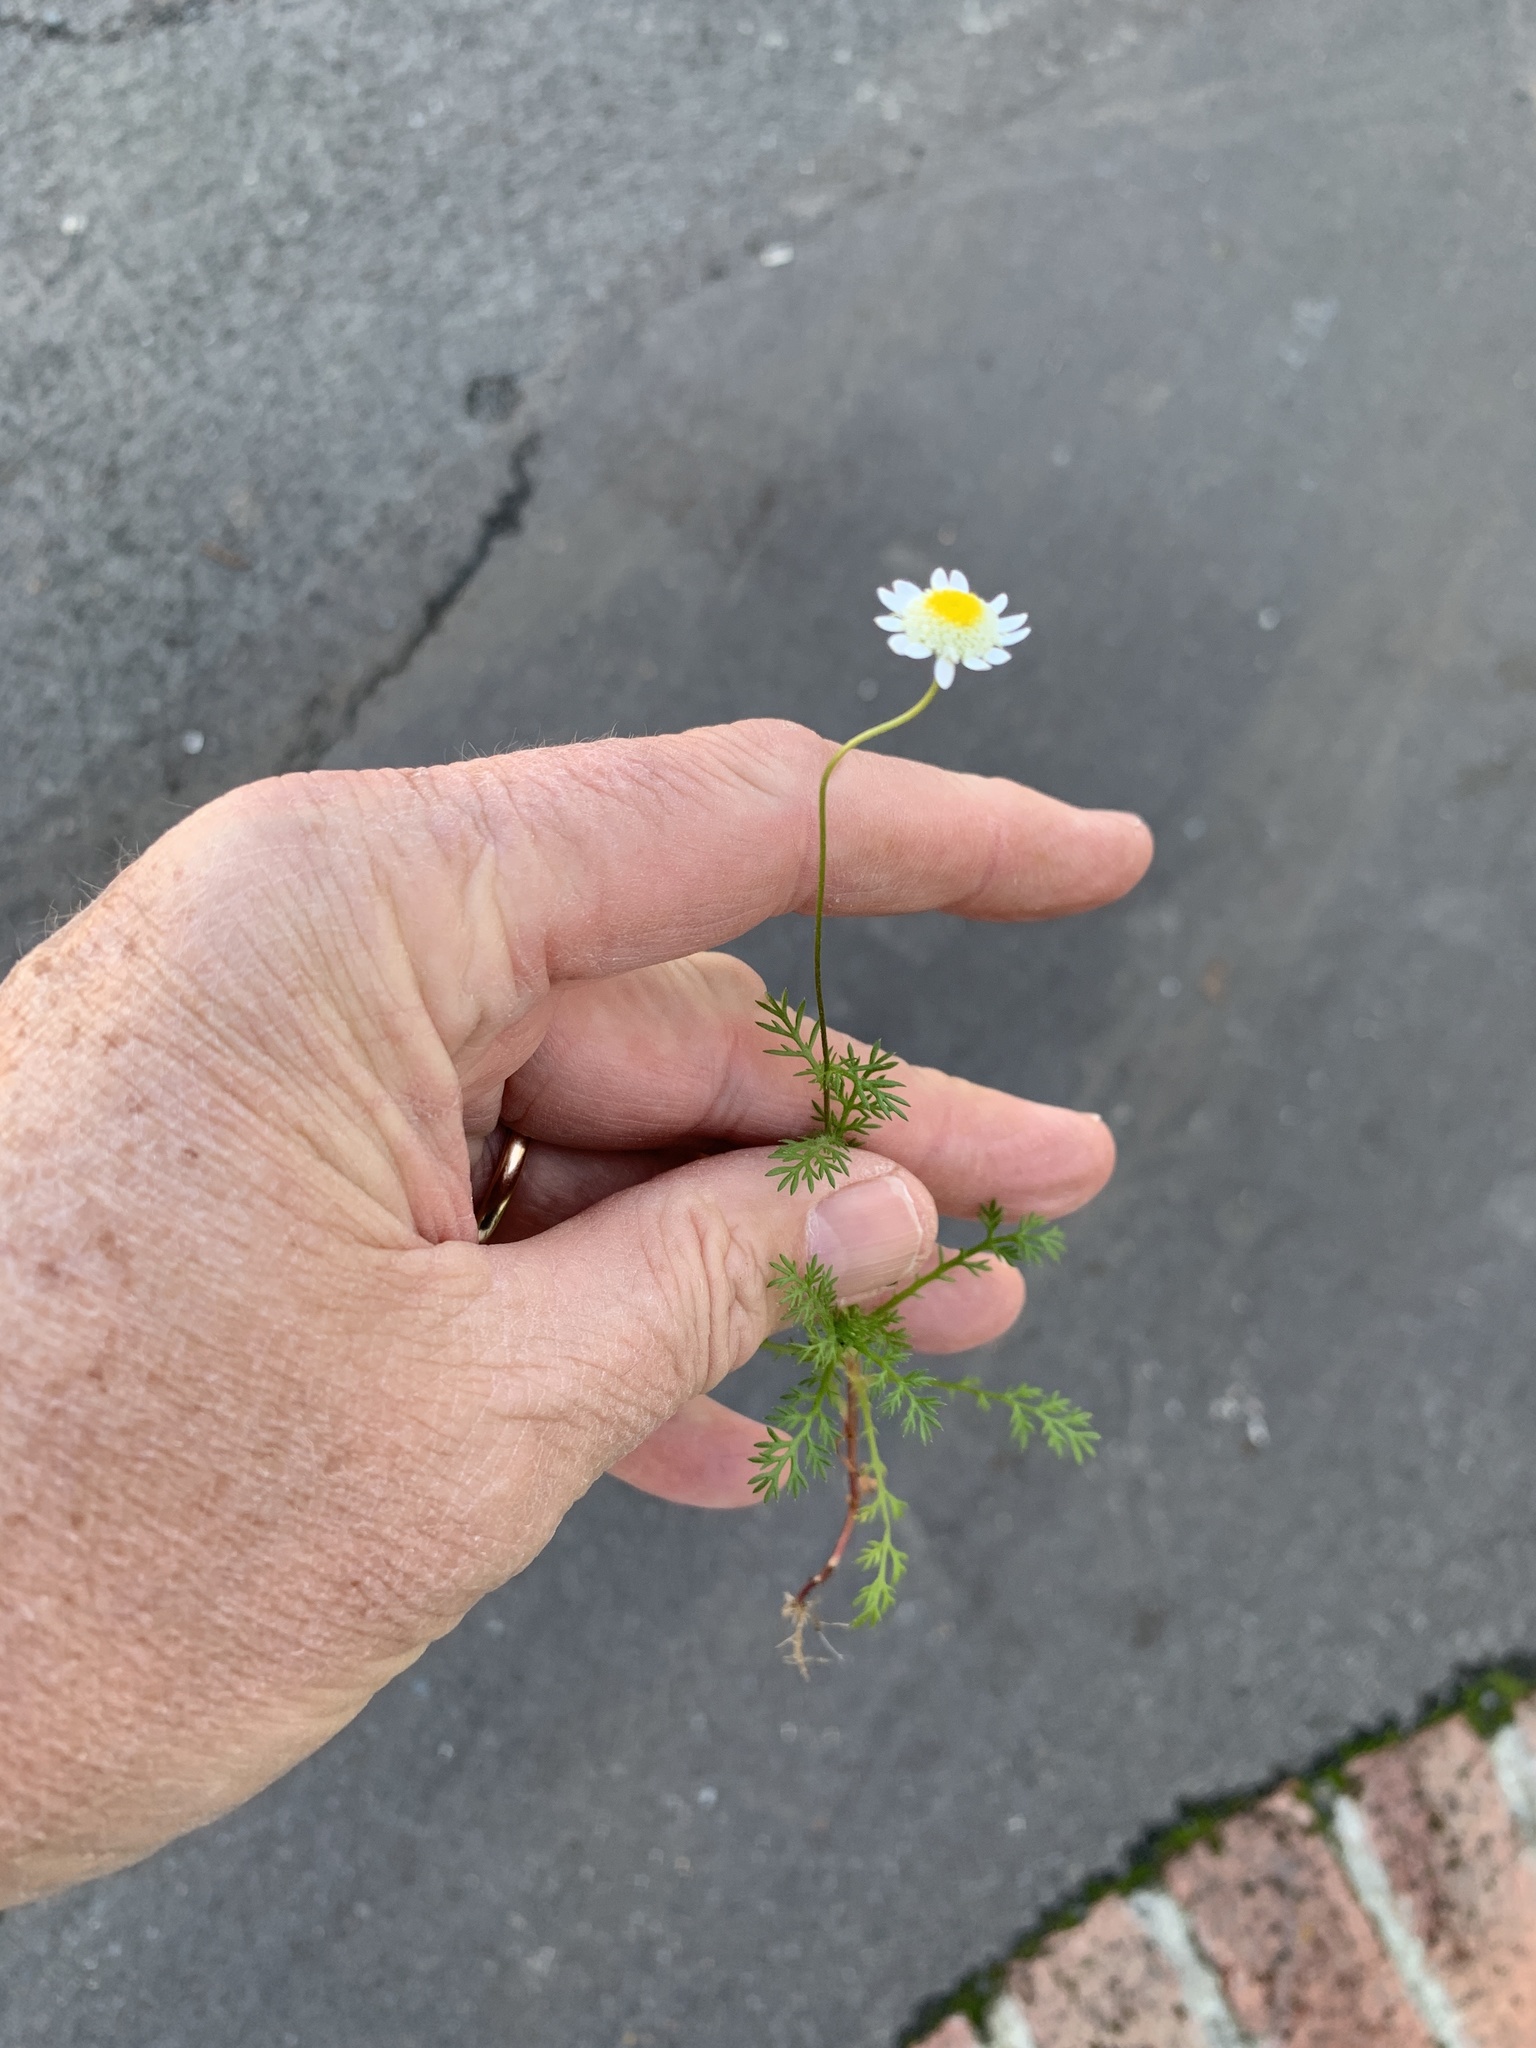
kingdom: Plantae
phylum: Tracheophyta
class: Magnoliopsida
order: Asterales
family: Asteraceae
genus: Cotula
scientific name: Cotula turbinata
